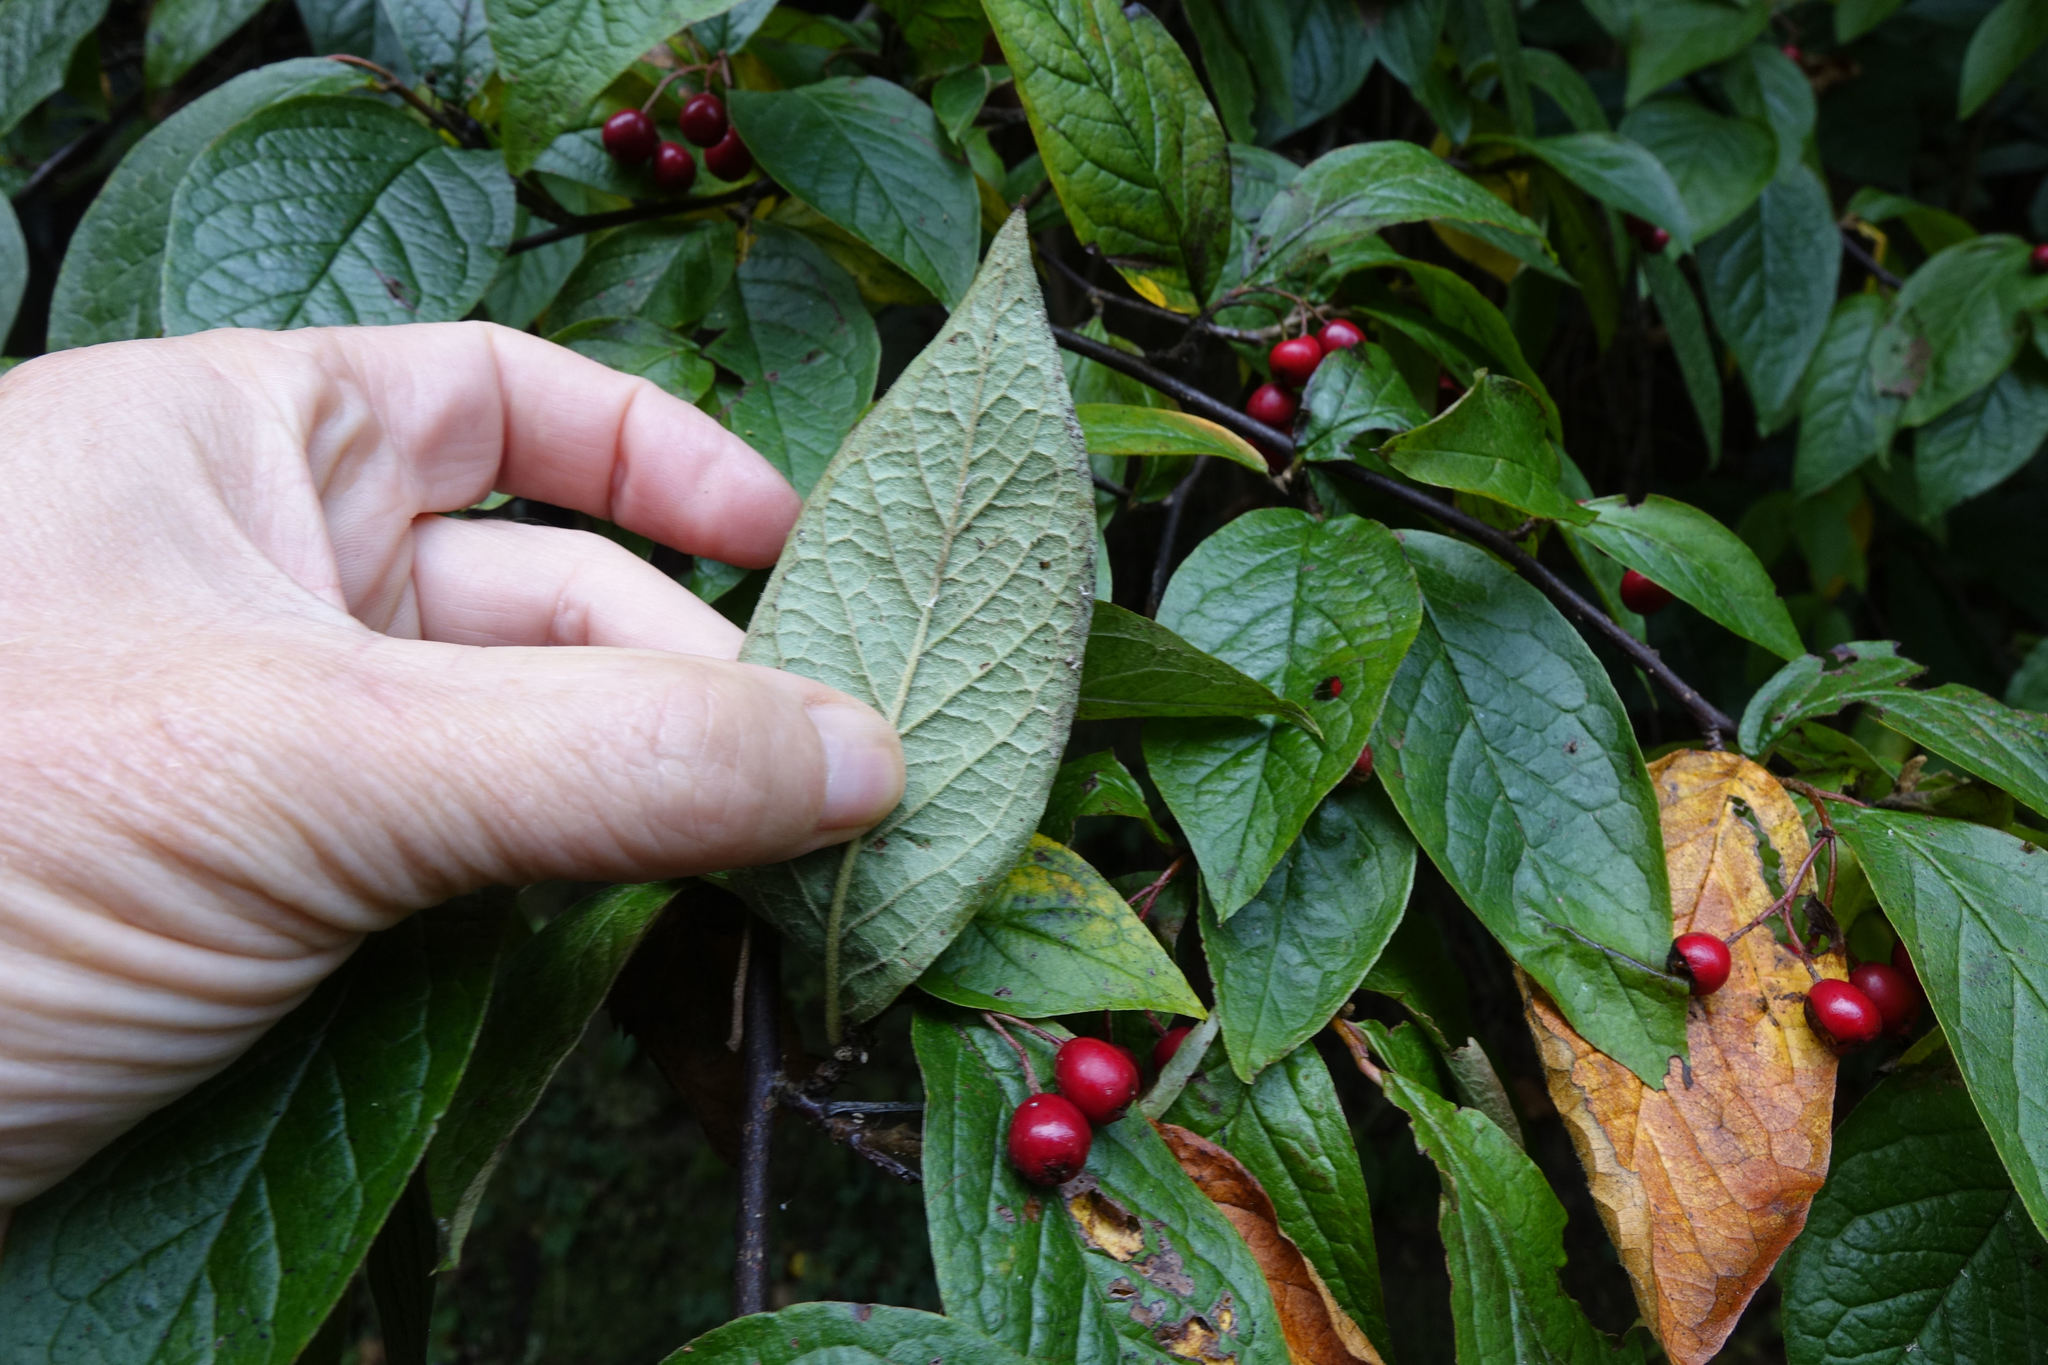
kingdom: Plantae
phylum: Tracheophyta
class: Magnoliopsida
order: Rosales
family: Rosaceae
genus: Cotoneaster
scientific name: Cotoneaster bullatus
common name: Hollyberry cotoneaster
